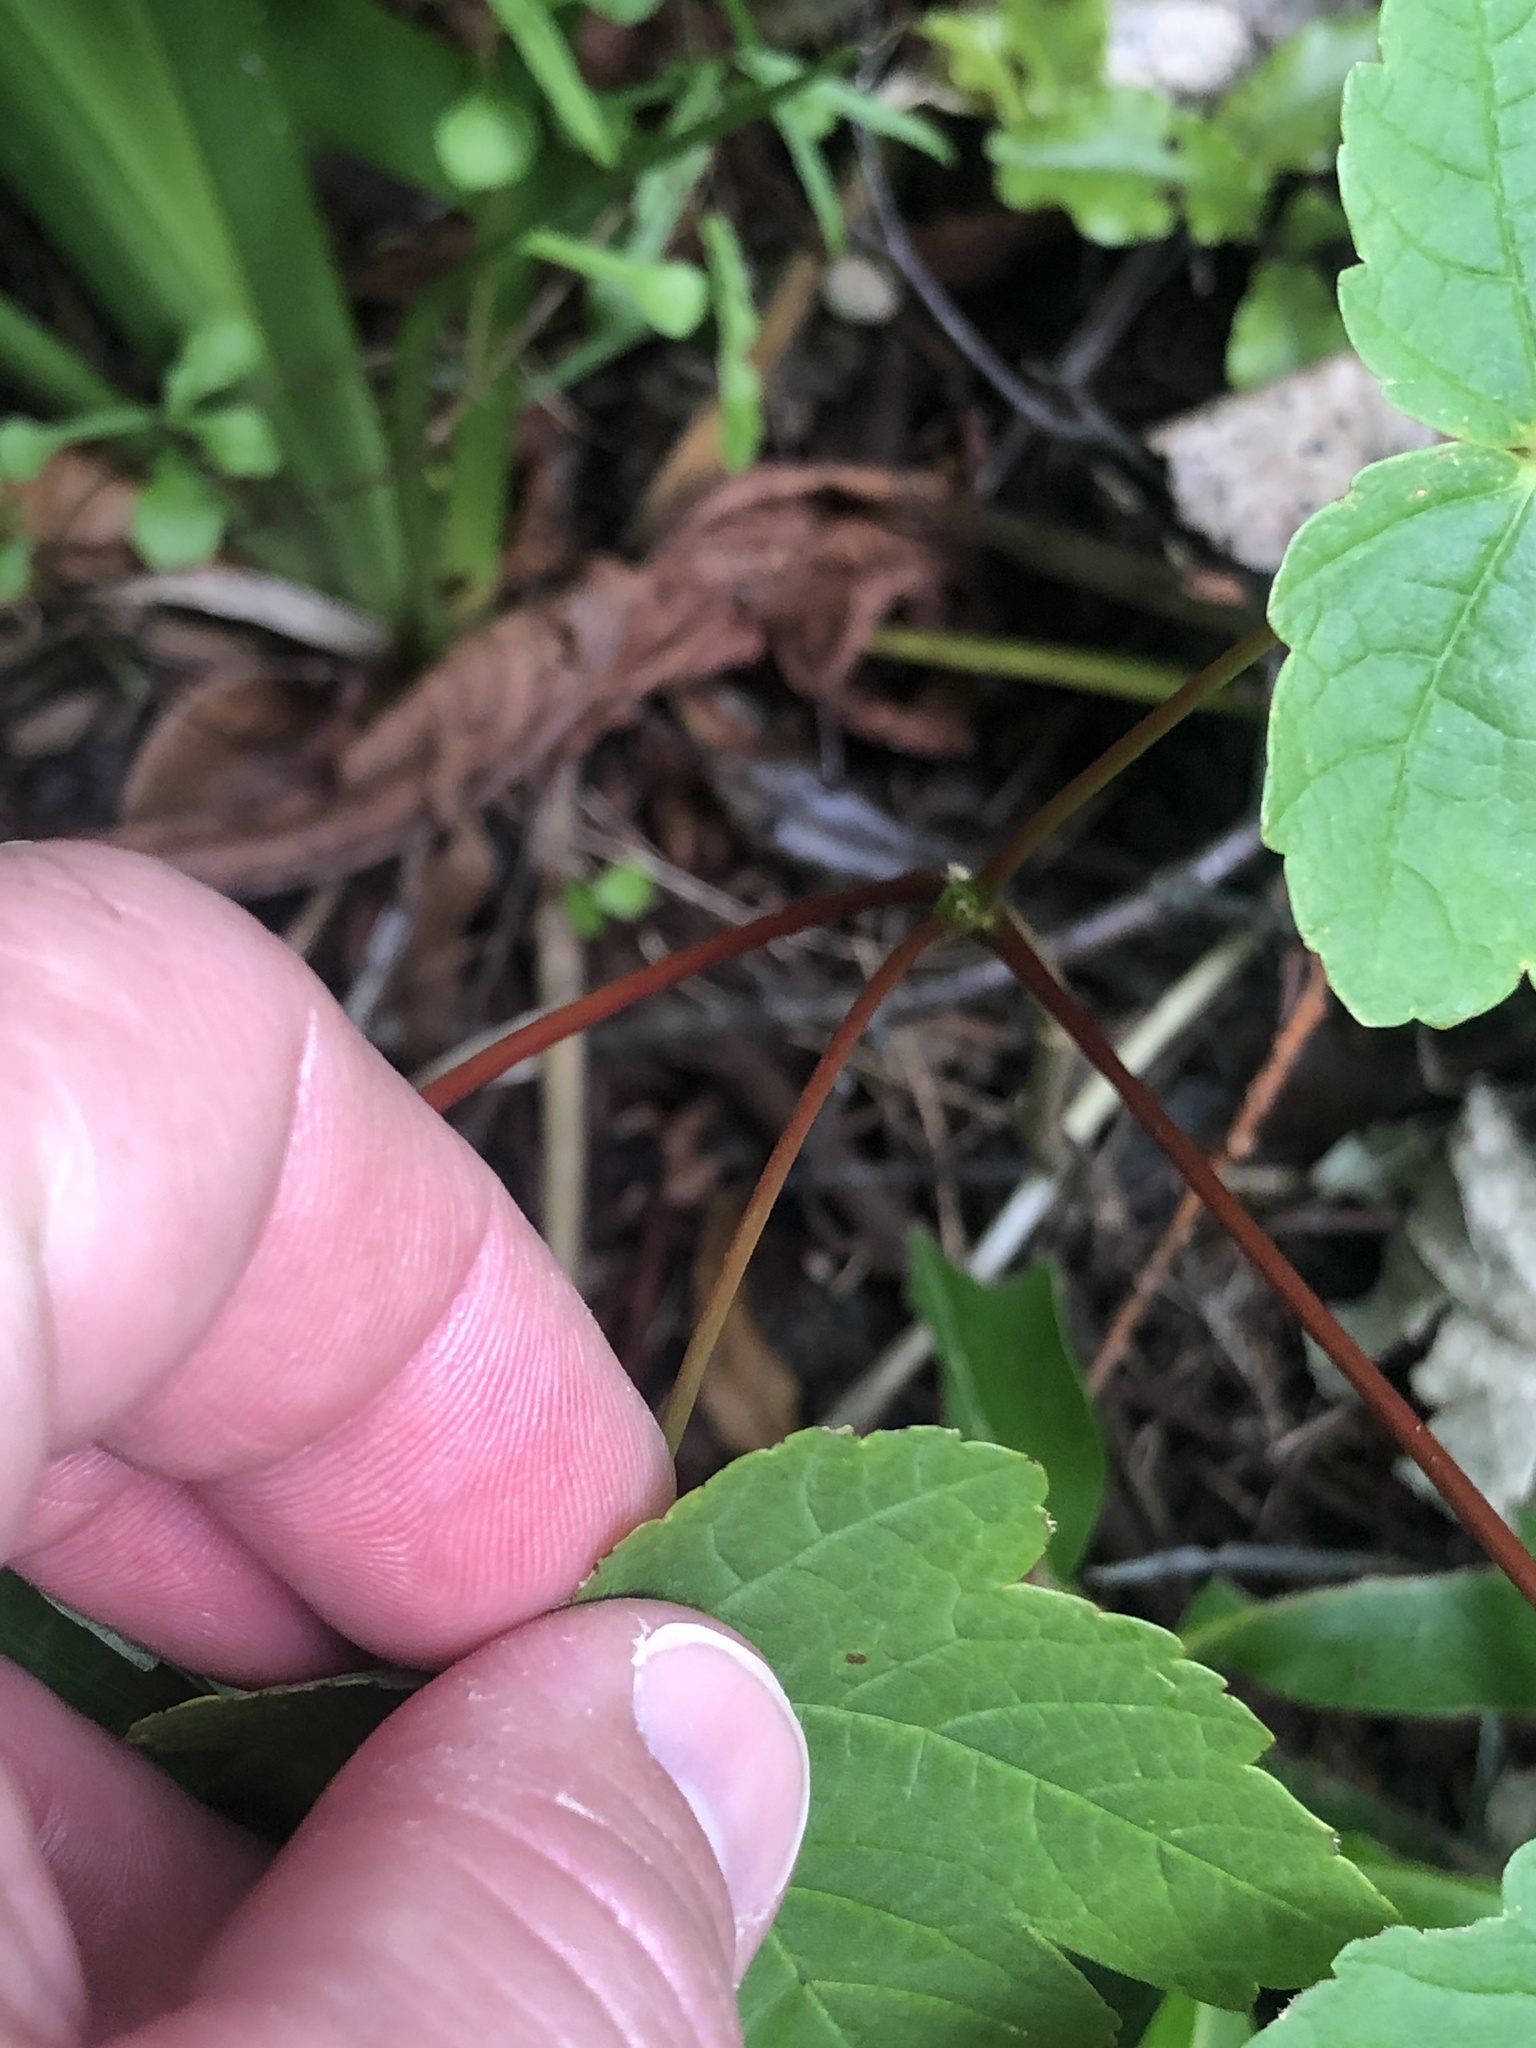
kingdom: Plantae
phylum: Tracheophyta
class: Magnoliopsida
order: Sapindales
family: Sapindaceae
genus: Acer
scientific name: Acer pseudoplatanus
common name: Sycamore
